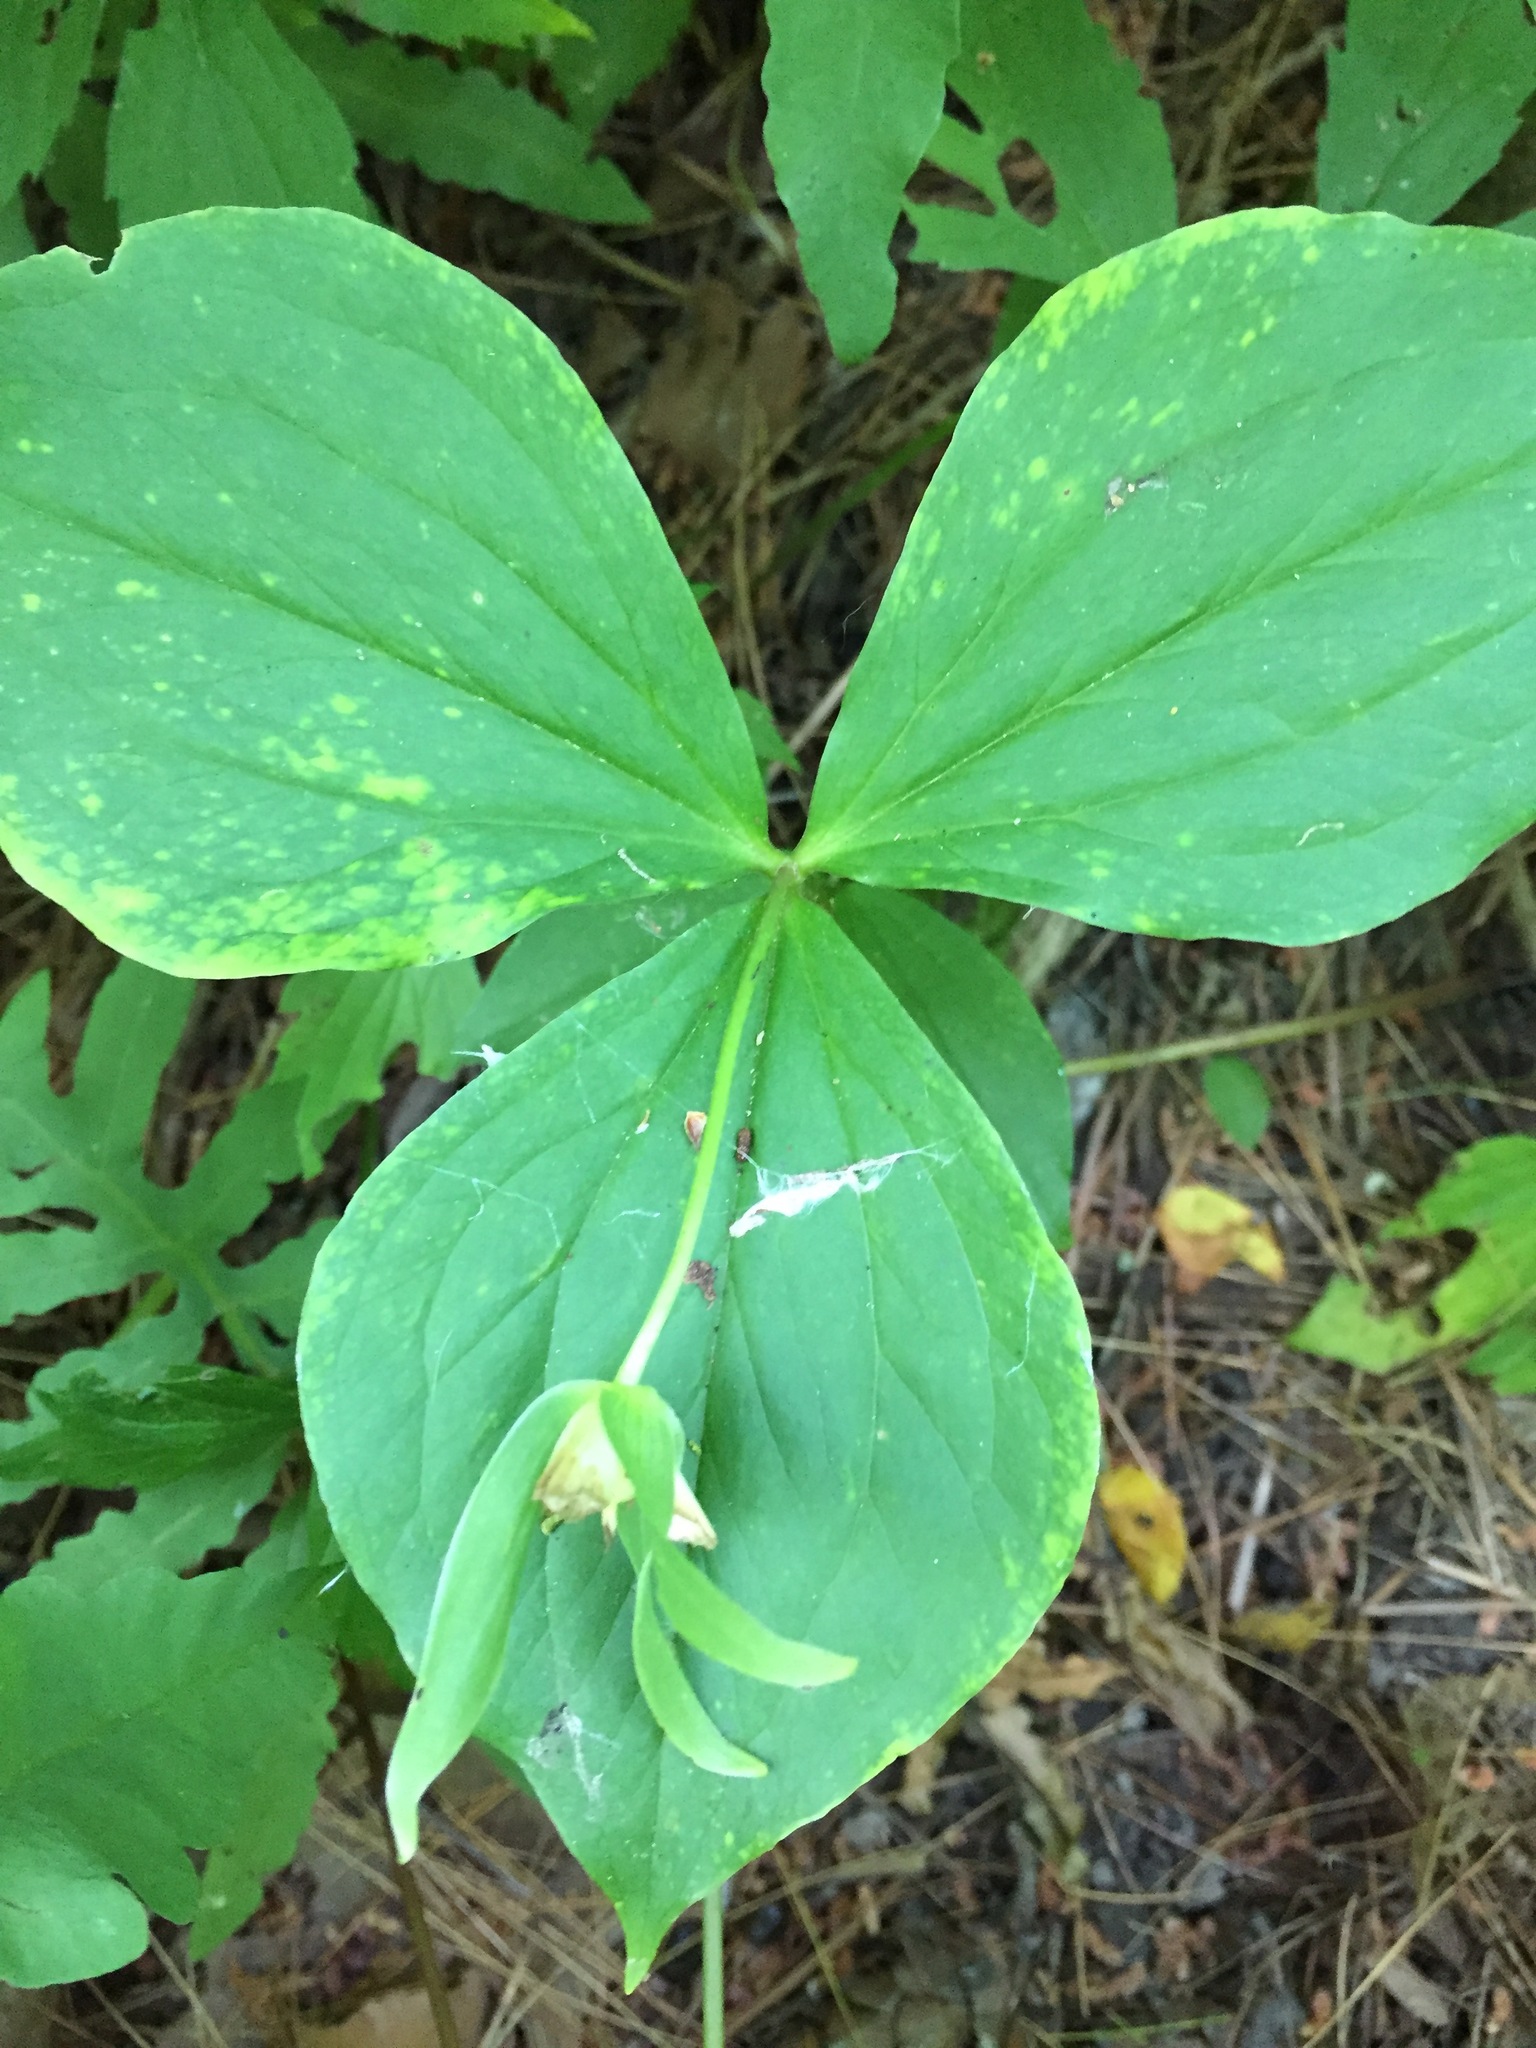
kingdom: Plantae
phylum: Tracheophyta
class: Liliopsida
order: Liliales
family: Melanthiaceae
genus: Trillium
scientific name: Trillium grandiflorum
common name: Great white trillium
